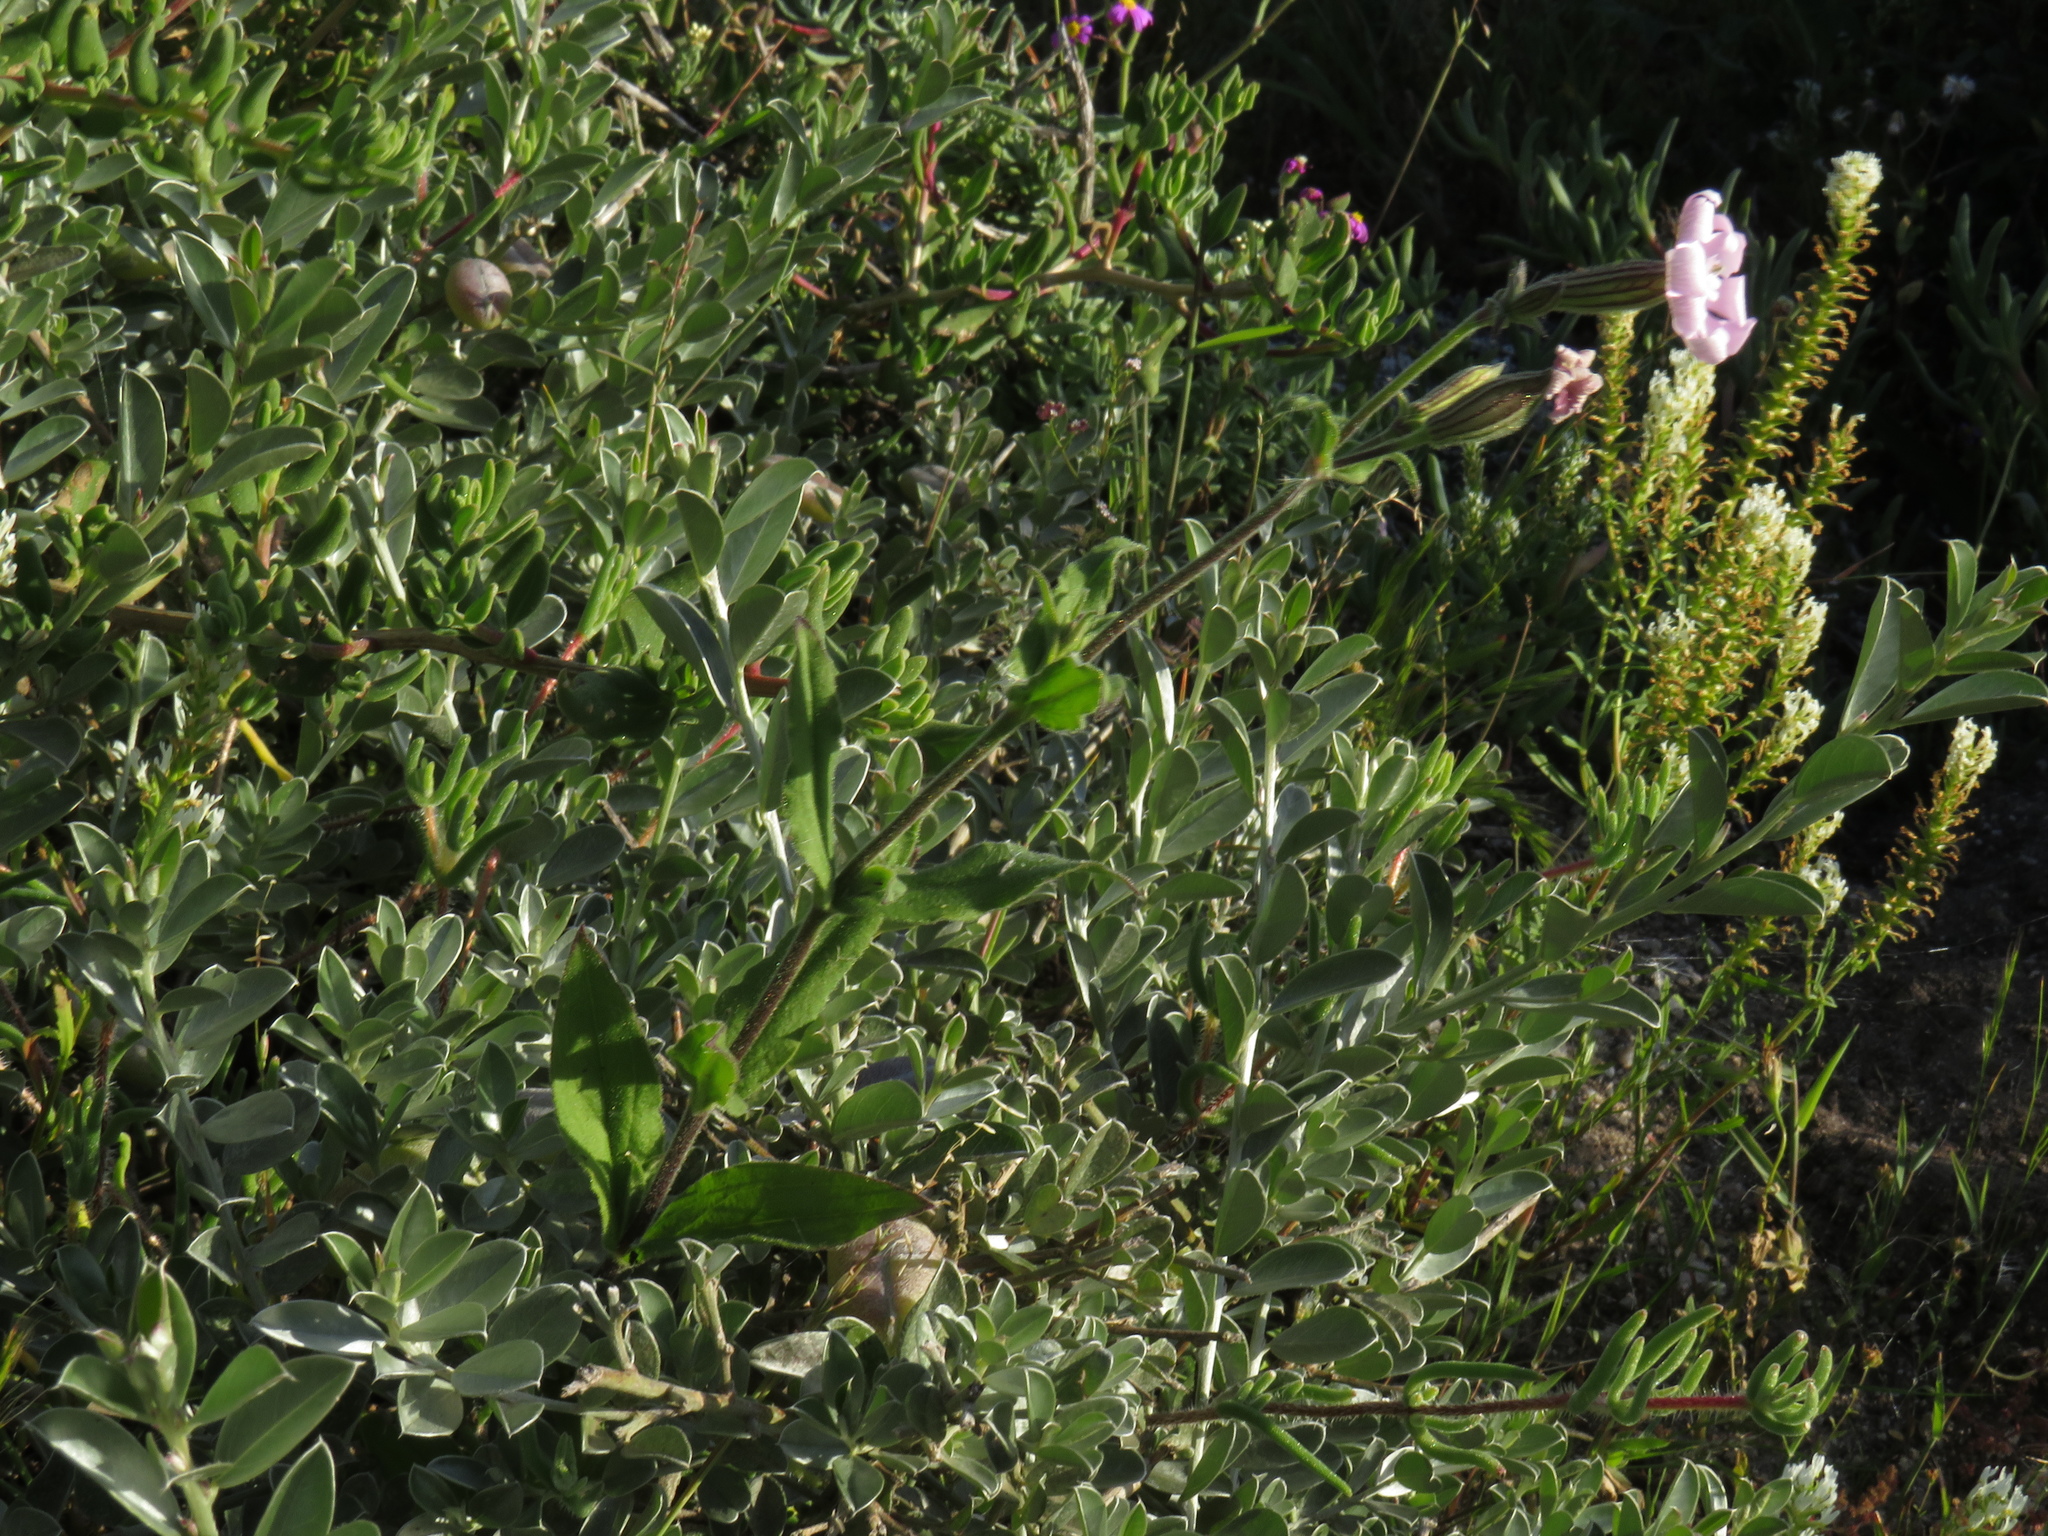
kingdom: Plantae
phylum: Tracheophyta
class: Magnoliopsida
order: Caryophyllales
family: Caryophyllaceae
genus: Silene
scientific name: Silene rigens
